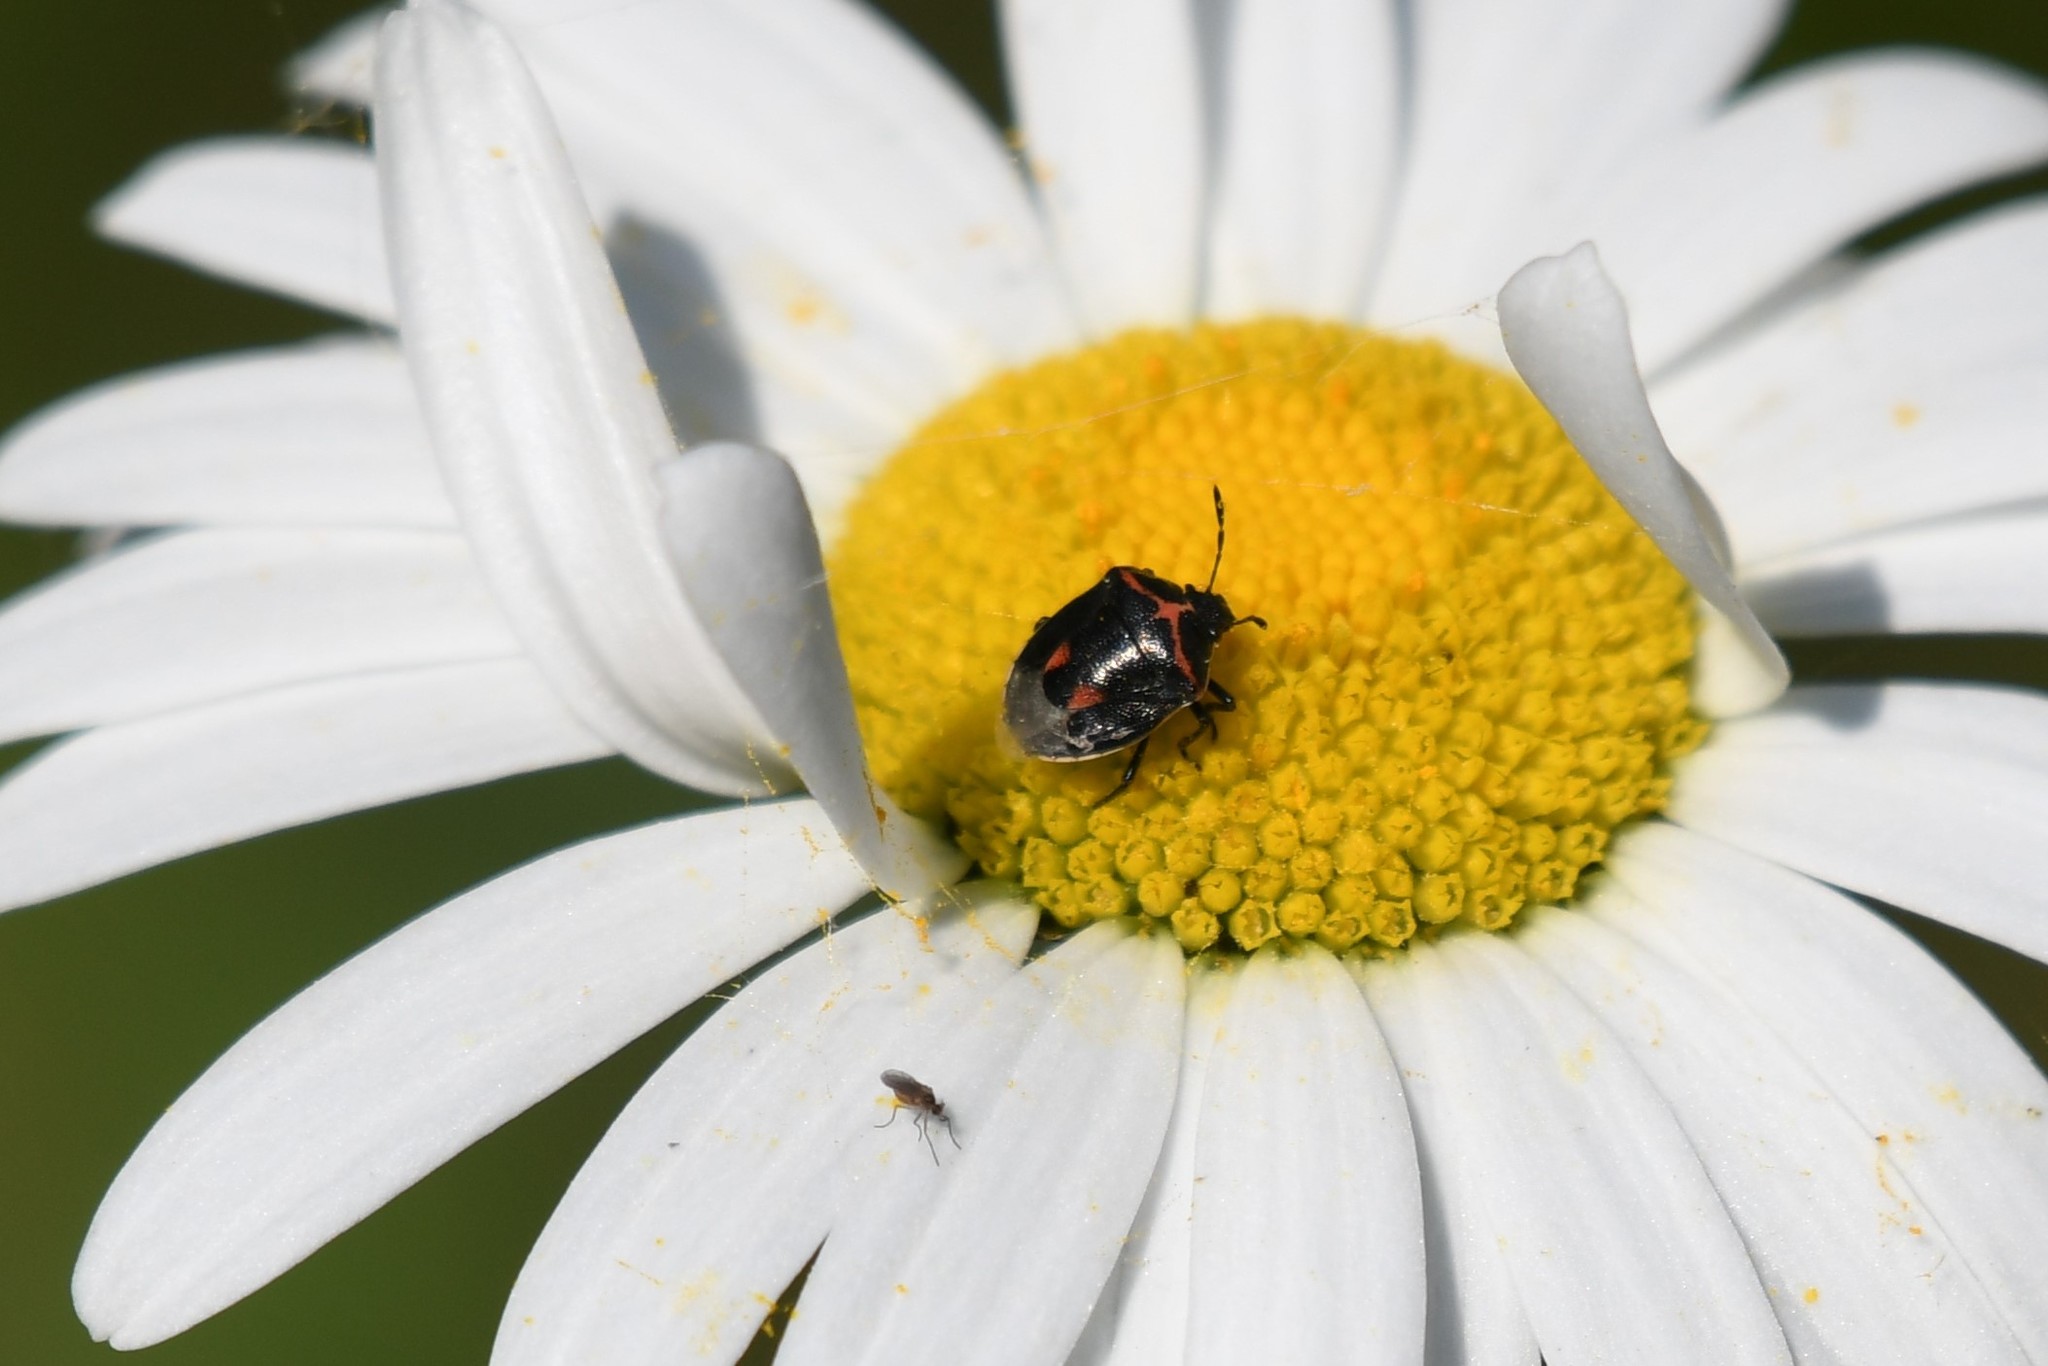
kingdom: Animalia
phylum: Arthropoda
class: Insecta
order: Hemiptera
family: Pentatomidae
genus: Cosmopepla
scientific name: Cosmopepla lintneriana
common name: Twice-stabbed stink bug
